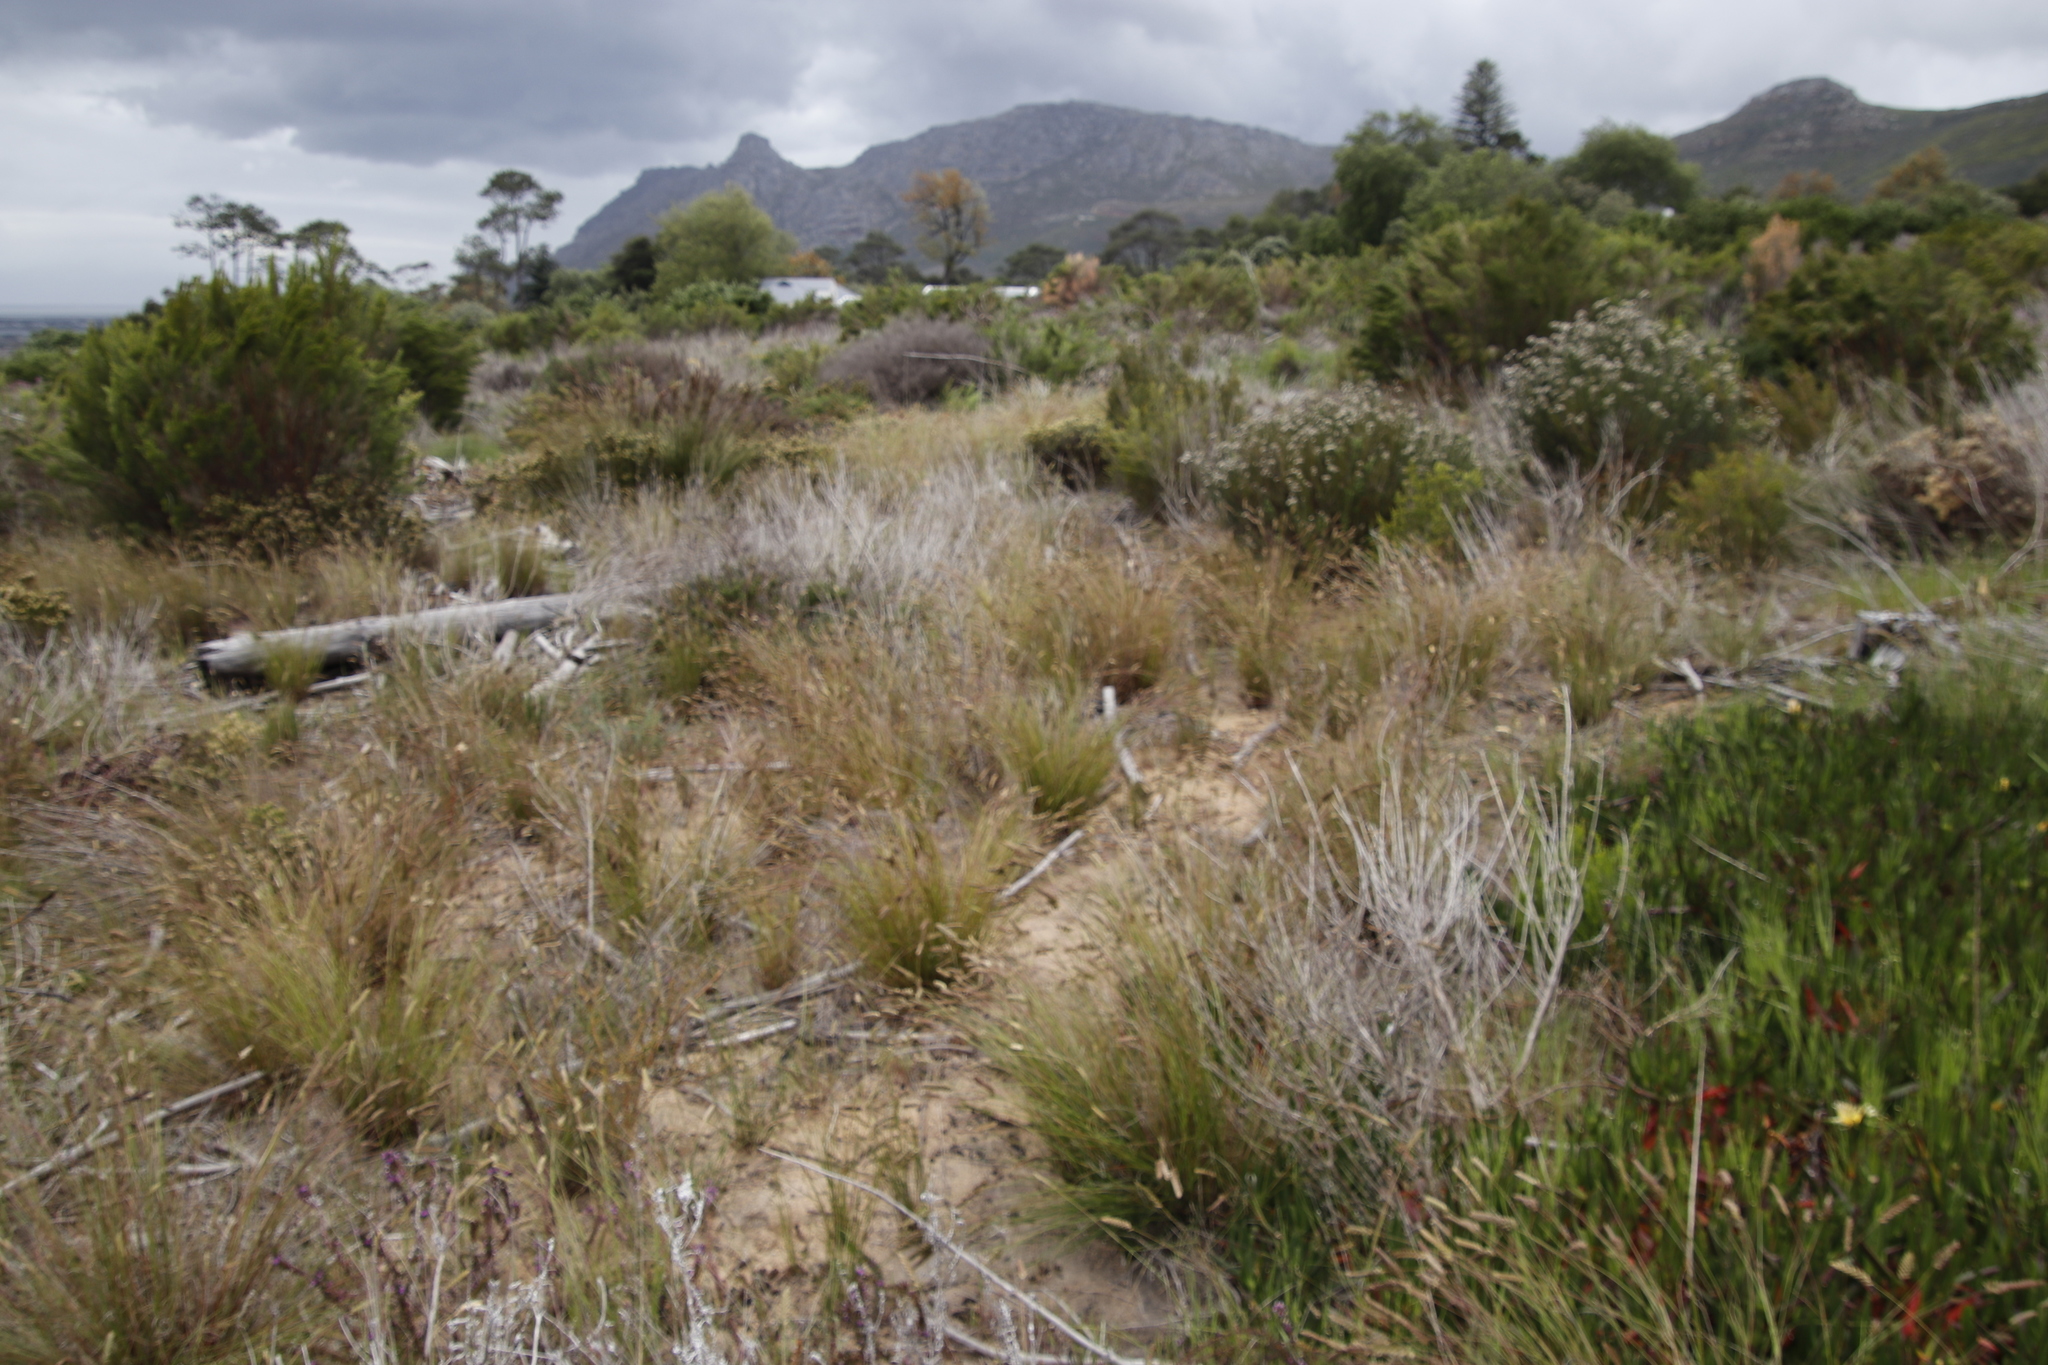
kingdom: Plantae
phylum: Tracheophyta
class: Liliopsida
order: Poales
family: Poaceae
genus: Tribolium
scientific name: Tribolium uniolae
